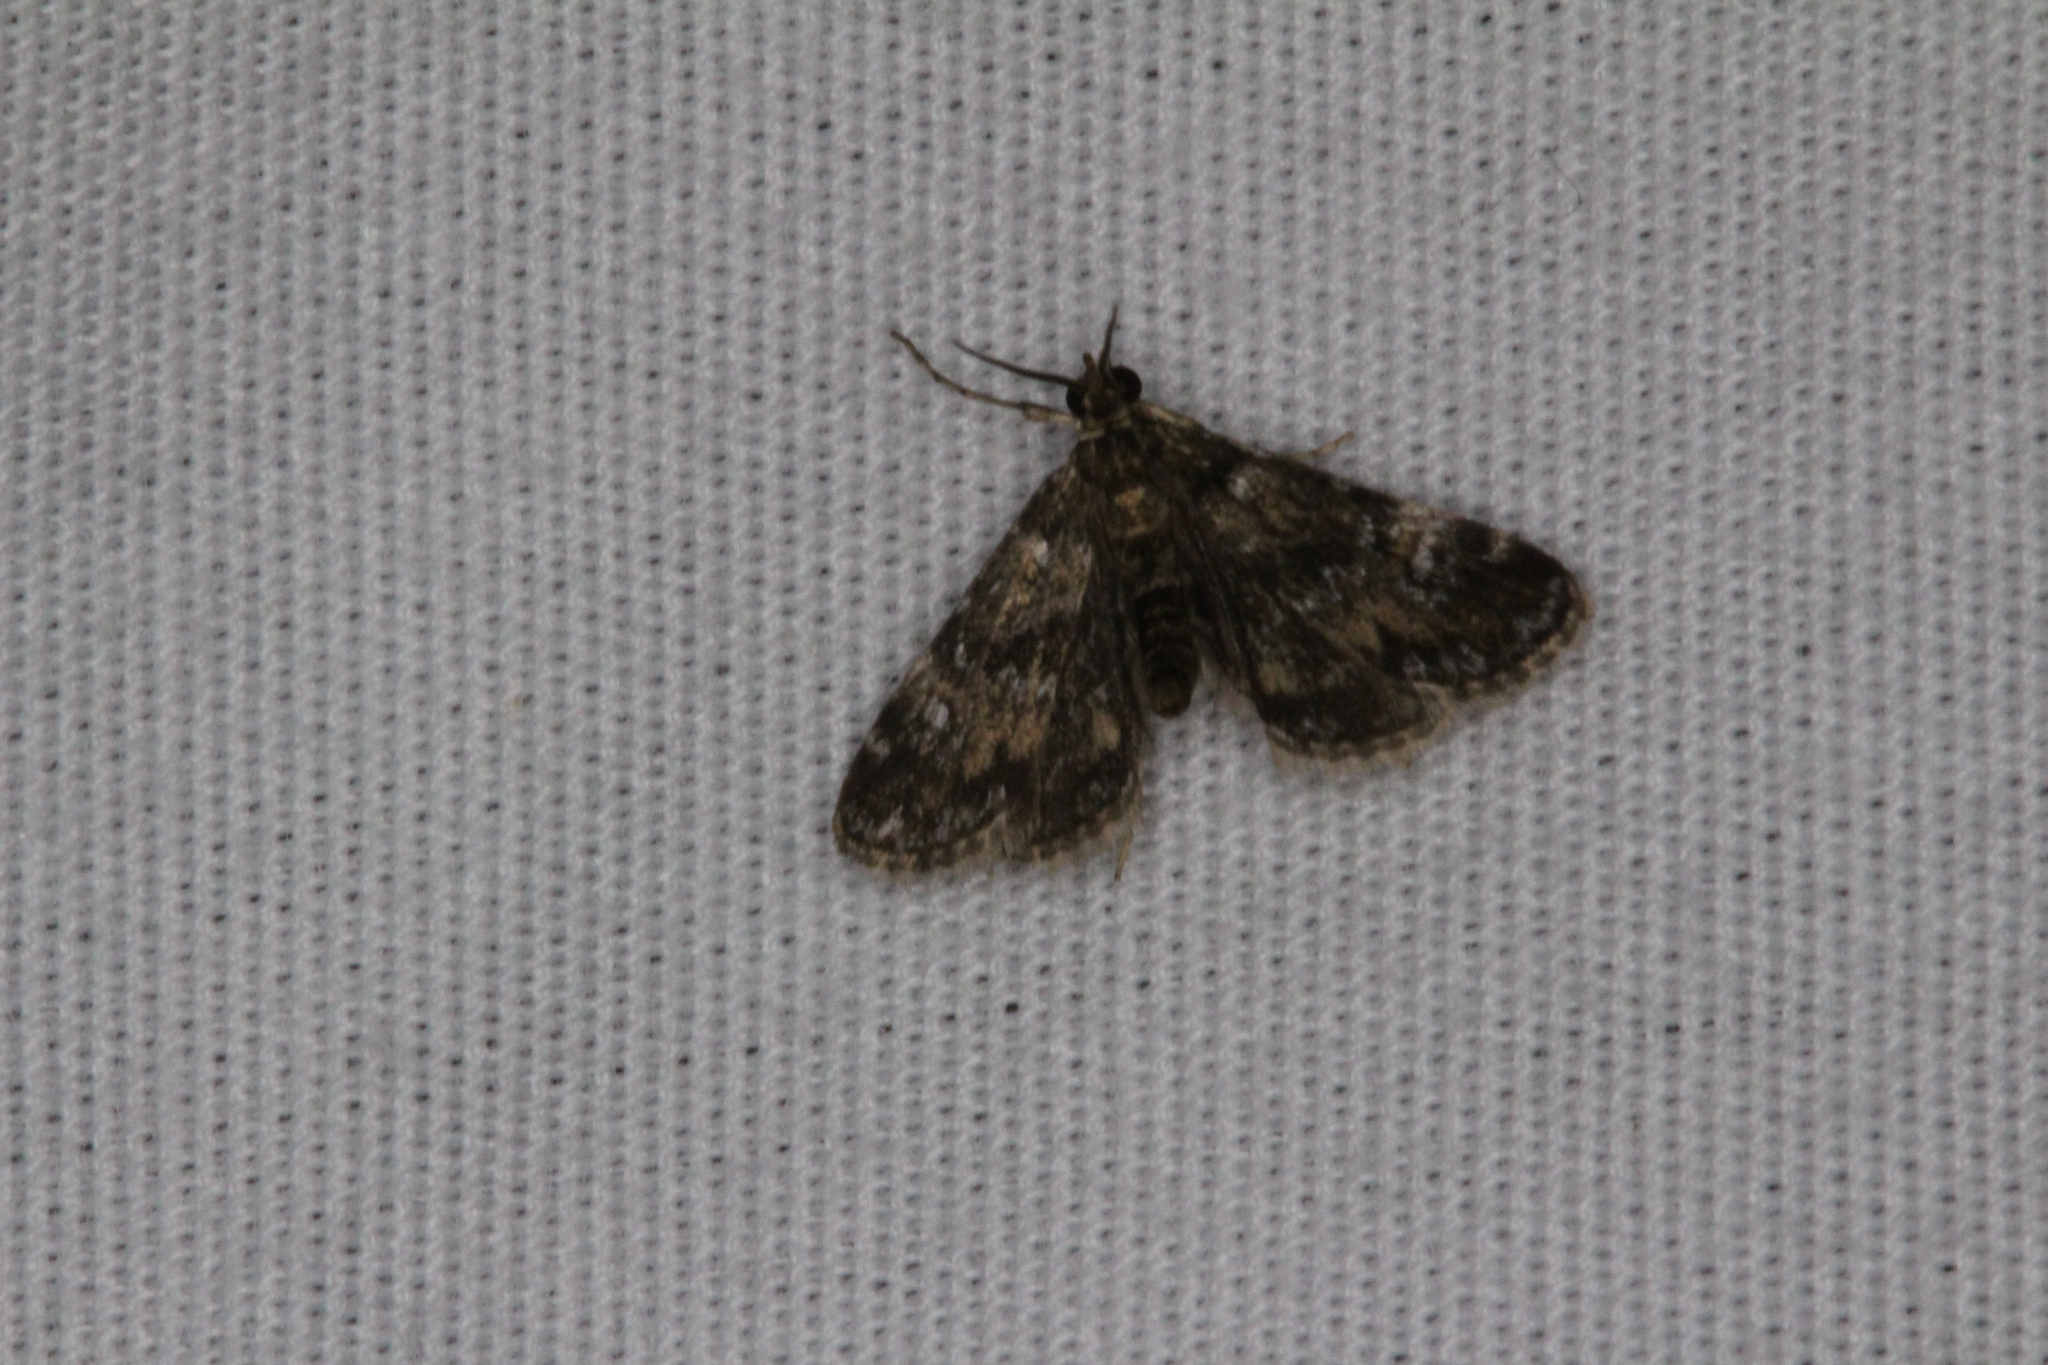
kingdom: Animalia
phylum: Arthropoda
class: Insecta
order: Lepidoptera
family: Crambidae
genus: Elophila
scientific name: Elophila obliteralis
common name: Waterlily leafcutter moth
